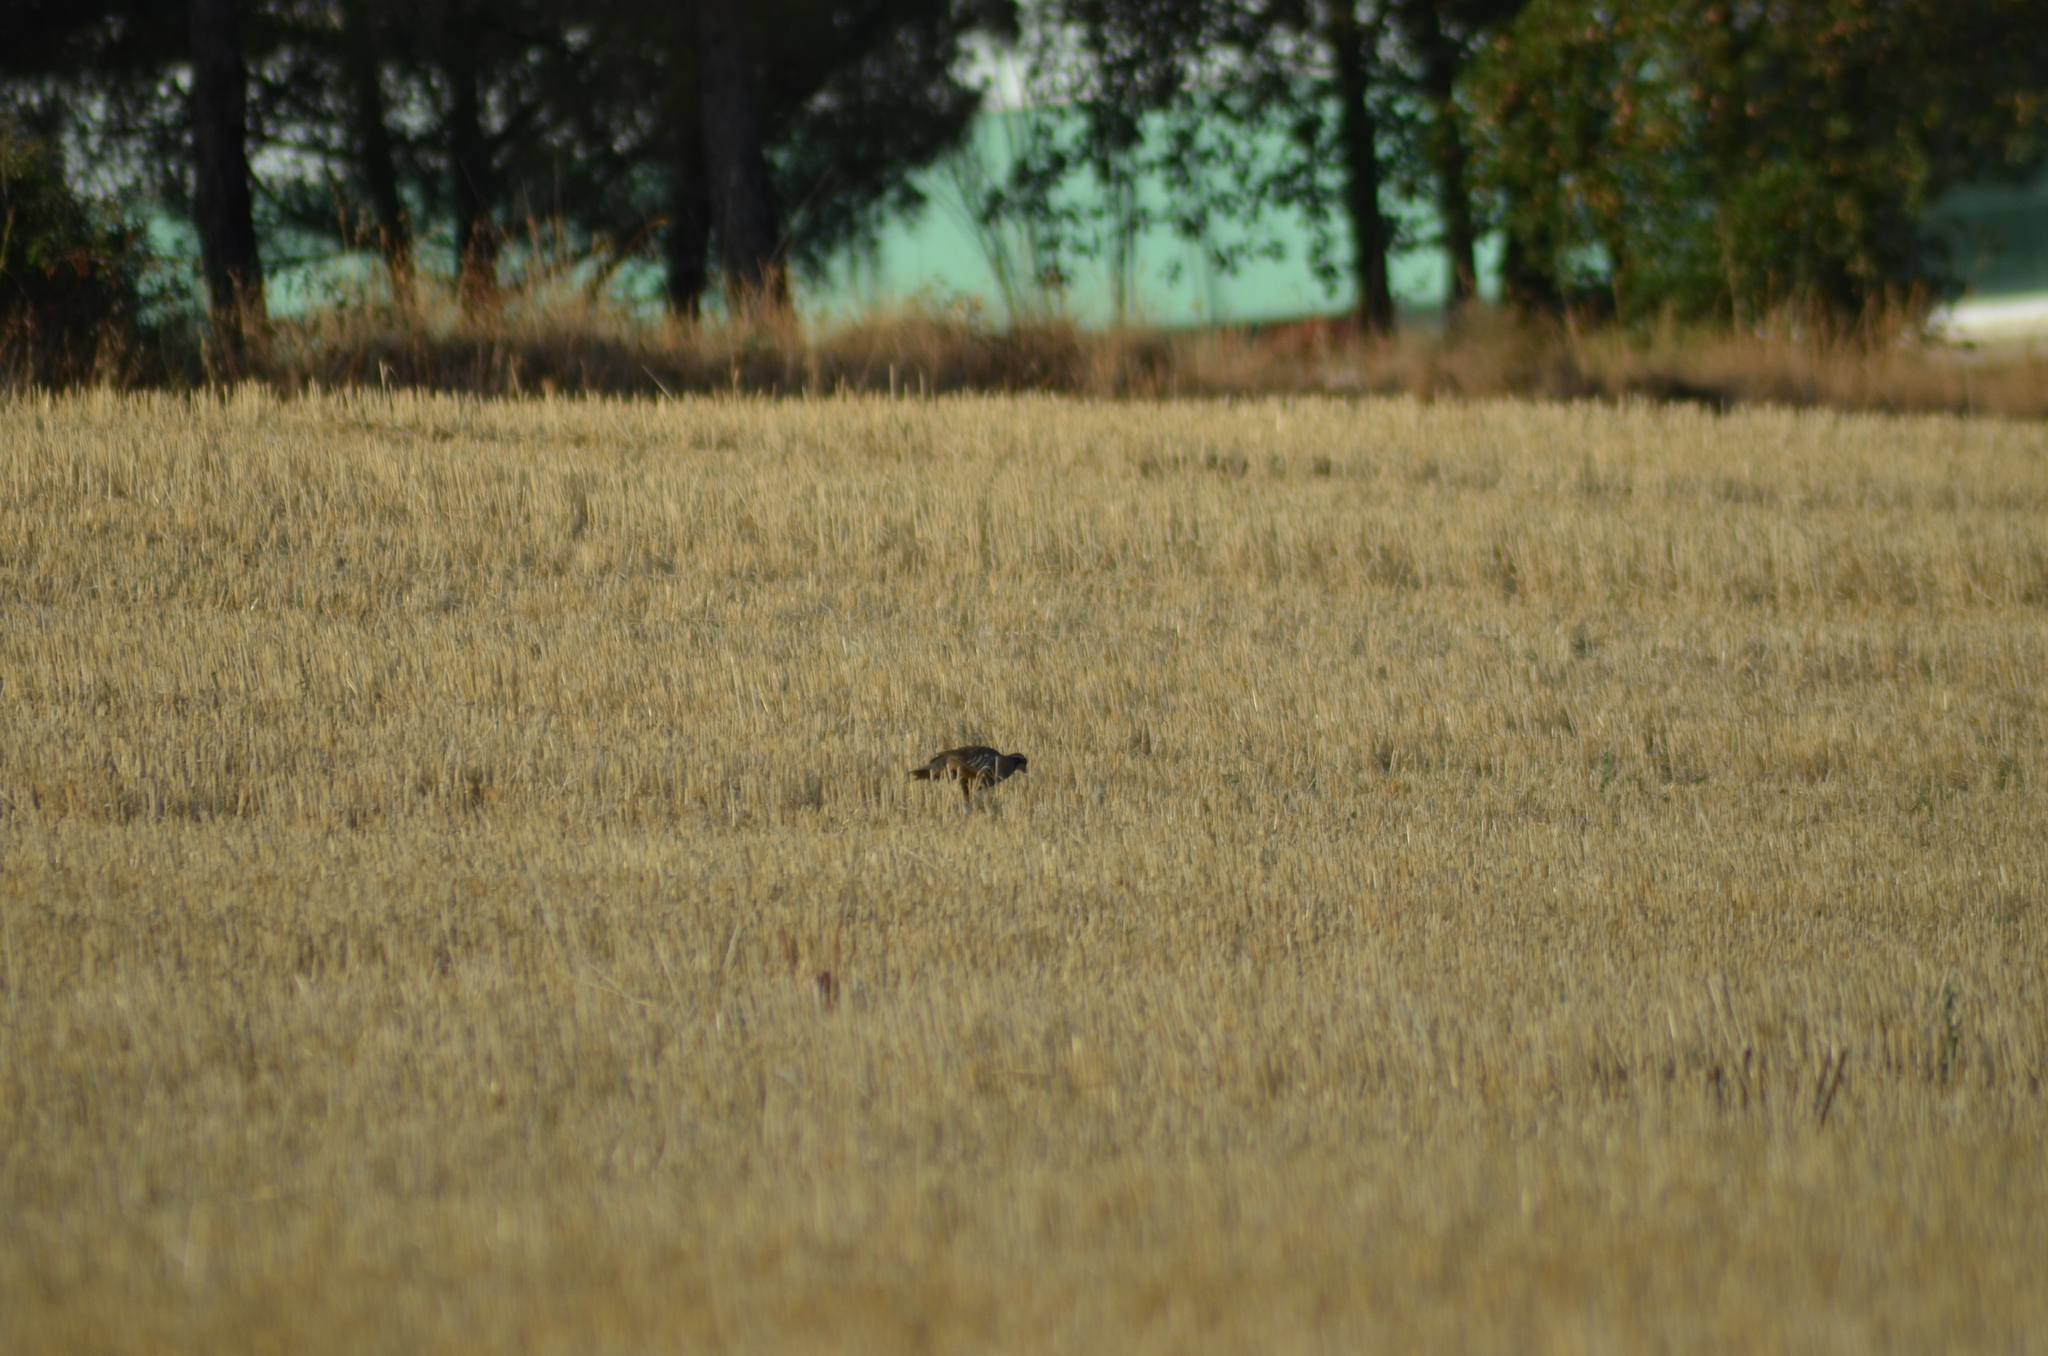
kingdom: Animalia
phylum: Chordata
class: Aves
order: Galliformes
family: Phasianidae
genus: Alectoris
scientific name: Alectoris rufa
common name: Red-legged partridge
